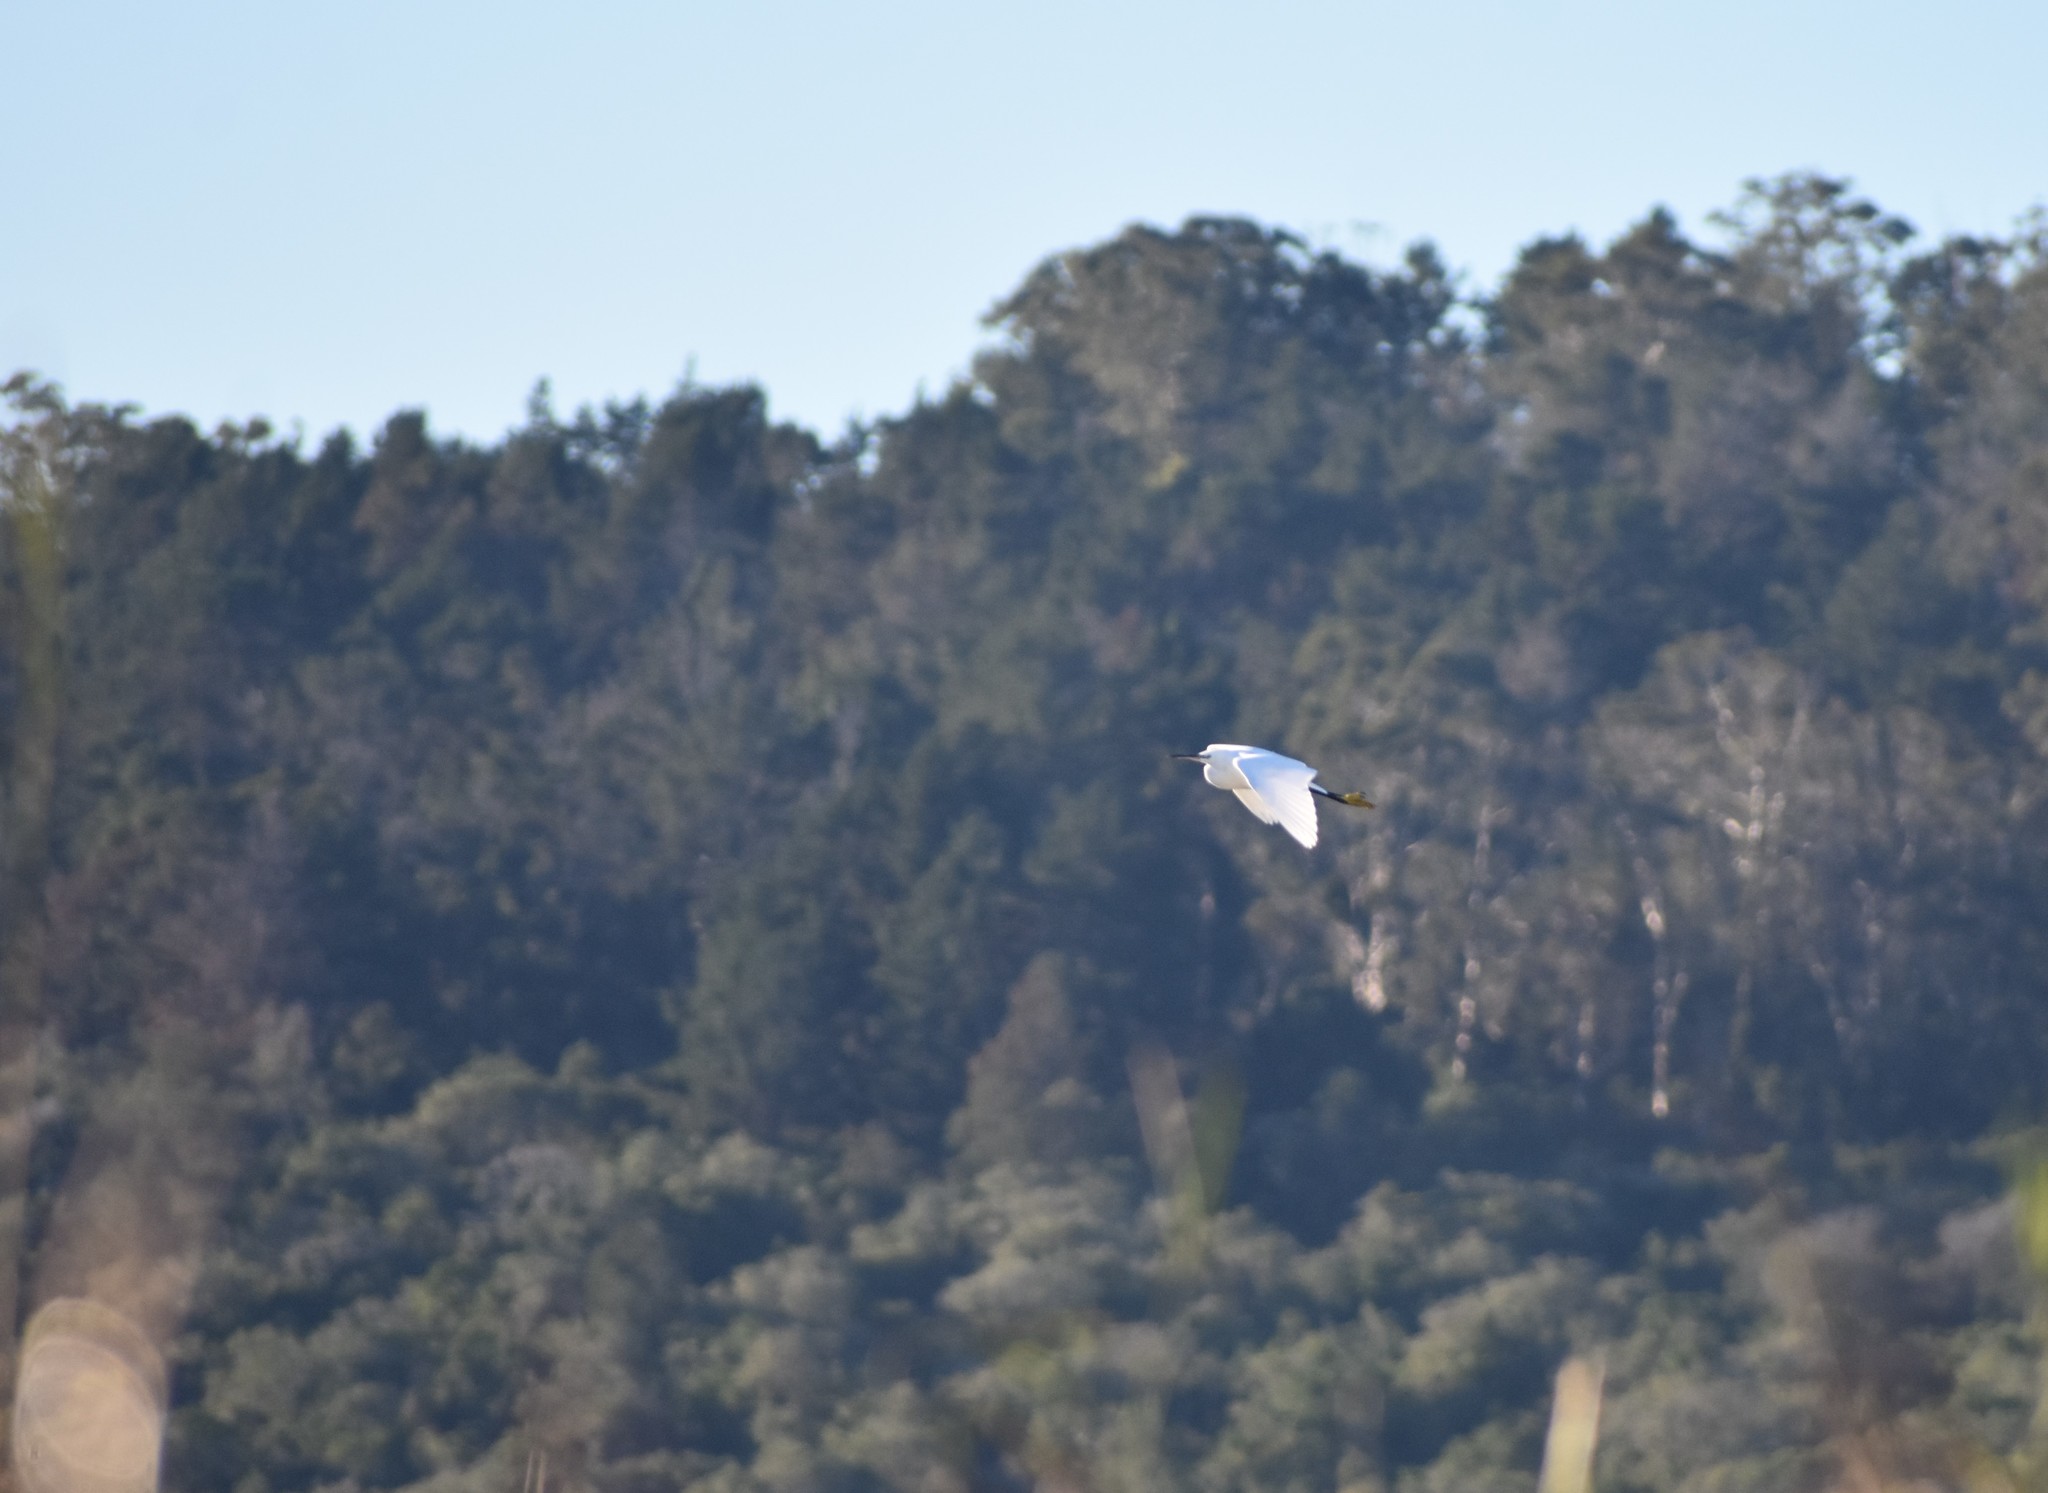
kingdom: Animalia
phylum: Chordata
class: Aves
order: Pelecaniformes
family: Ardeidae
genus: Egretta
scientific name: Egretta garzetta
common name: Little egret
